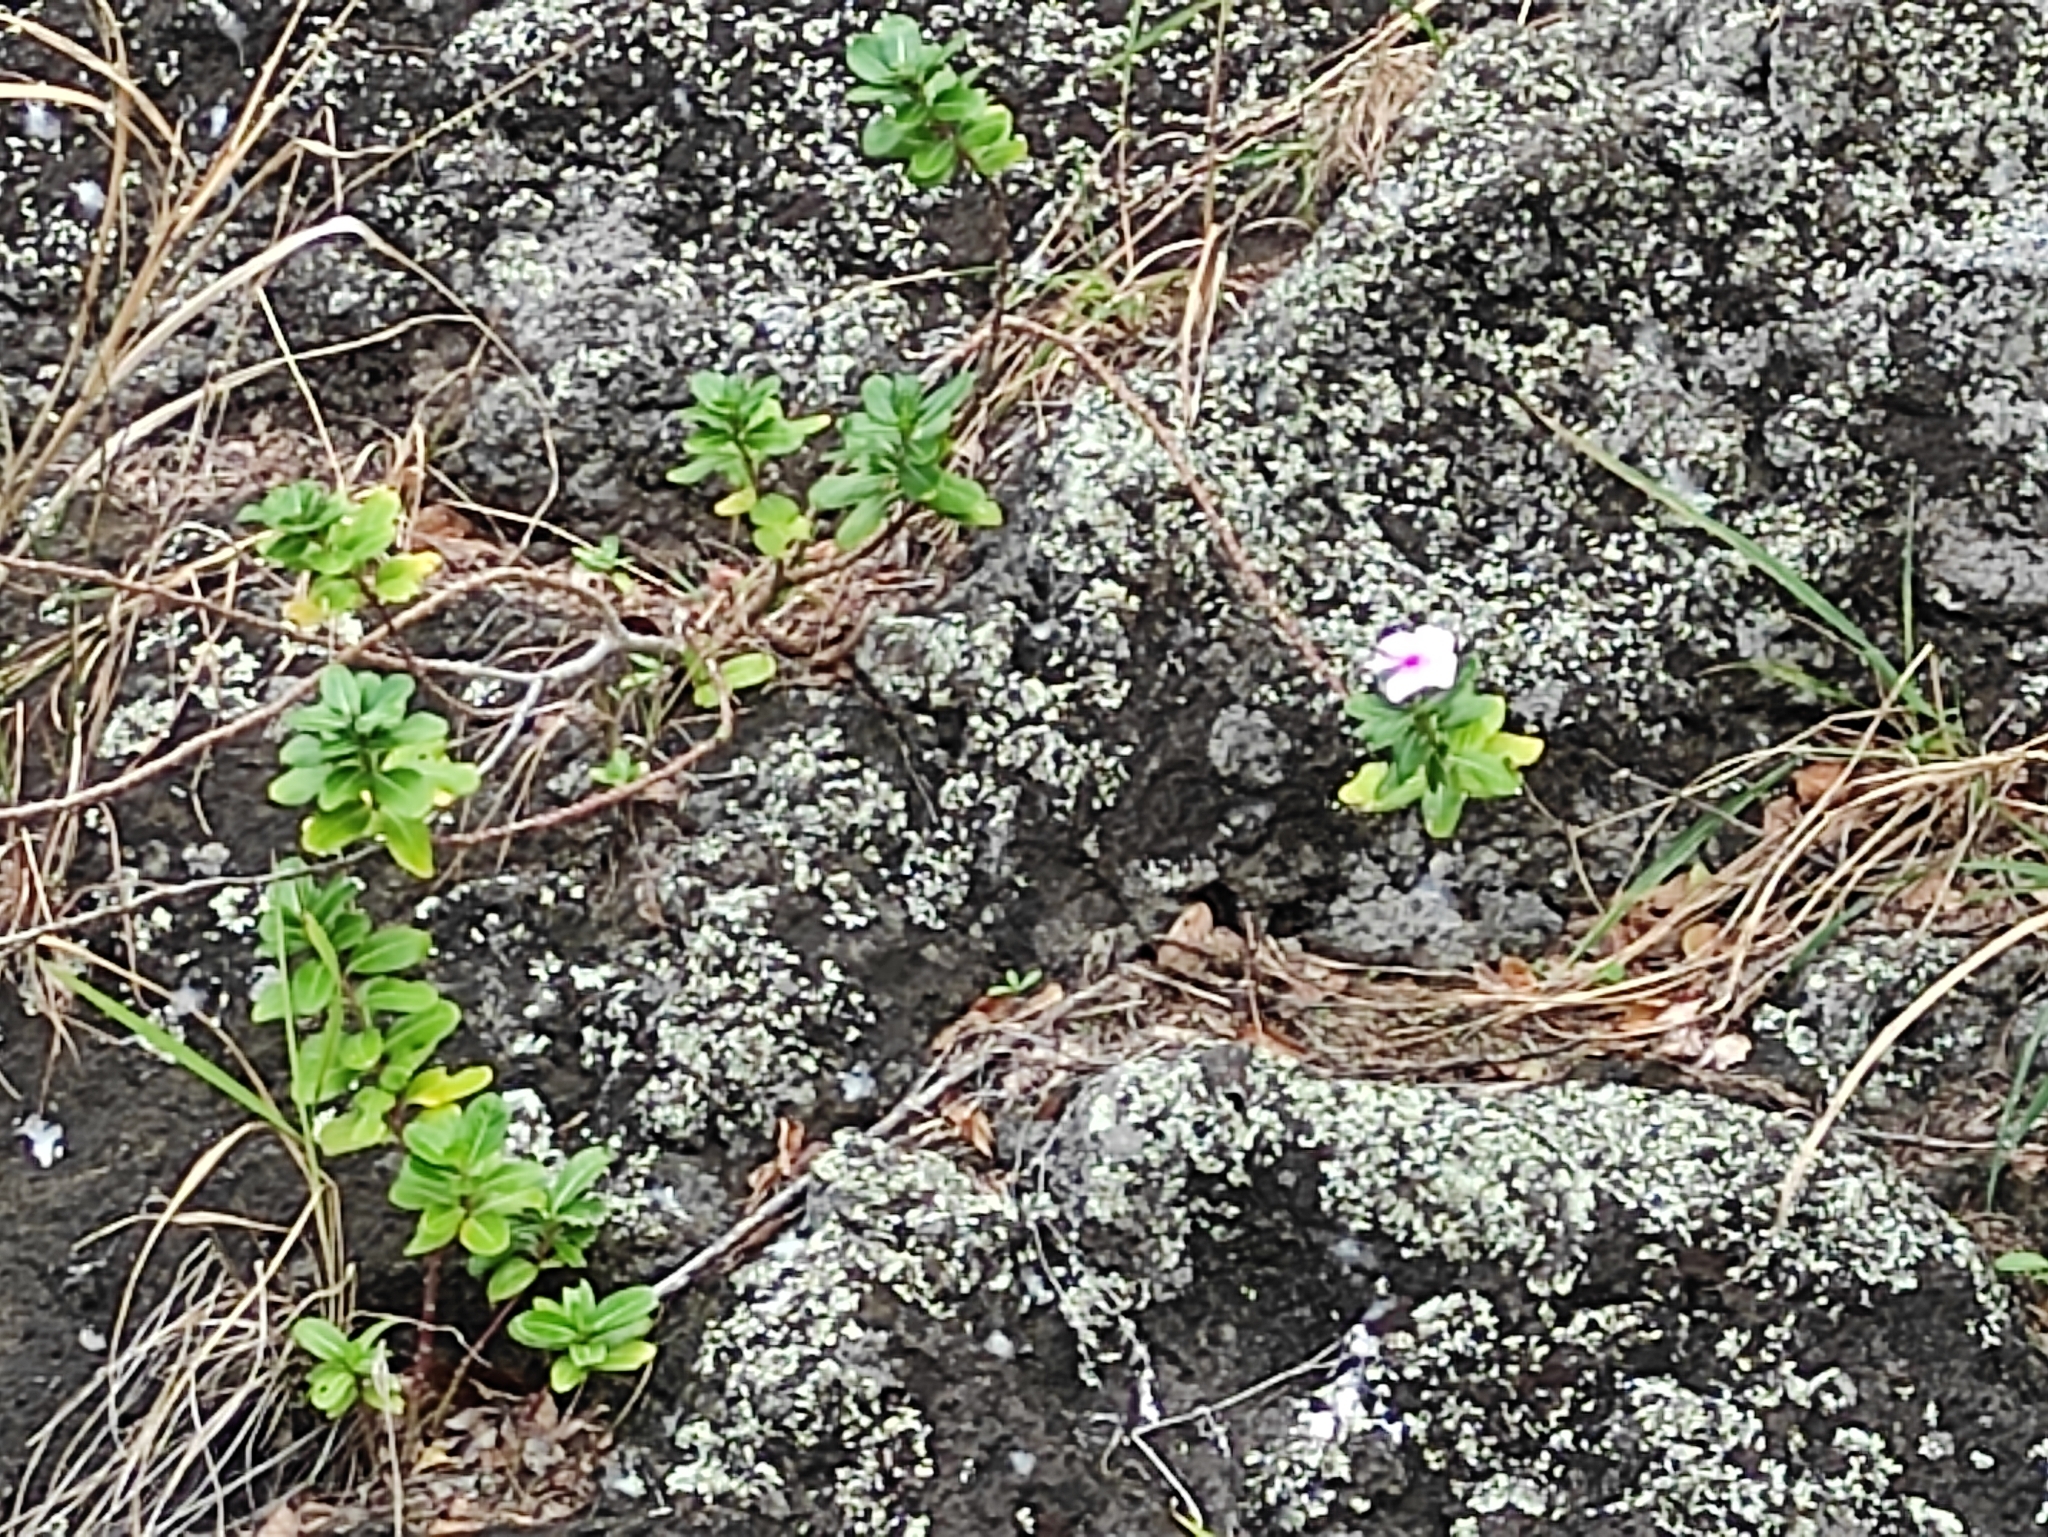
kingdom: Plantae
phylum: Tracheophyta
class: Magnoliopsida
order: Gentianales
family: Apocynaceae
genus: Catharanthus
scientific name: Catharanthus roseus
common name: Madagascar periwinkle
